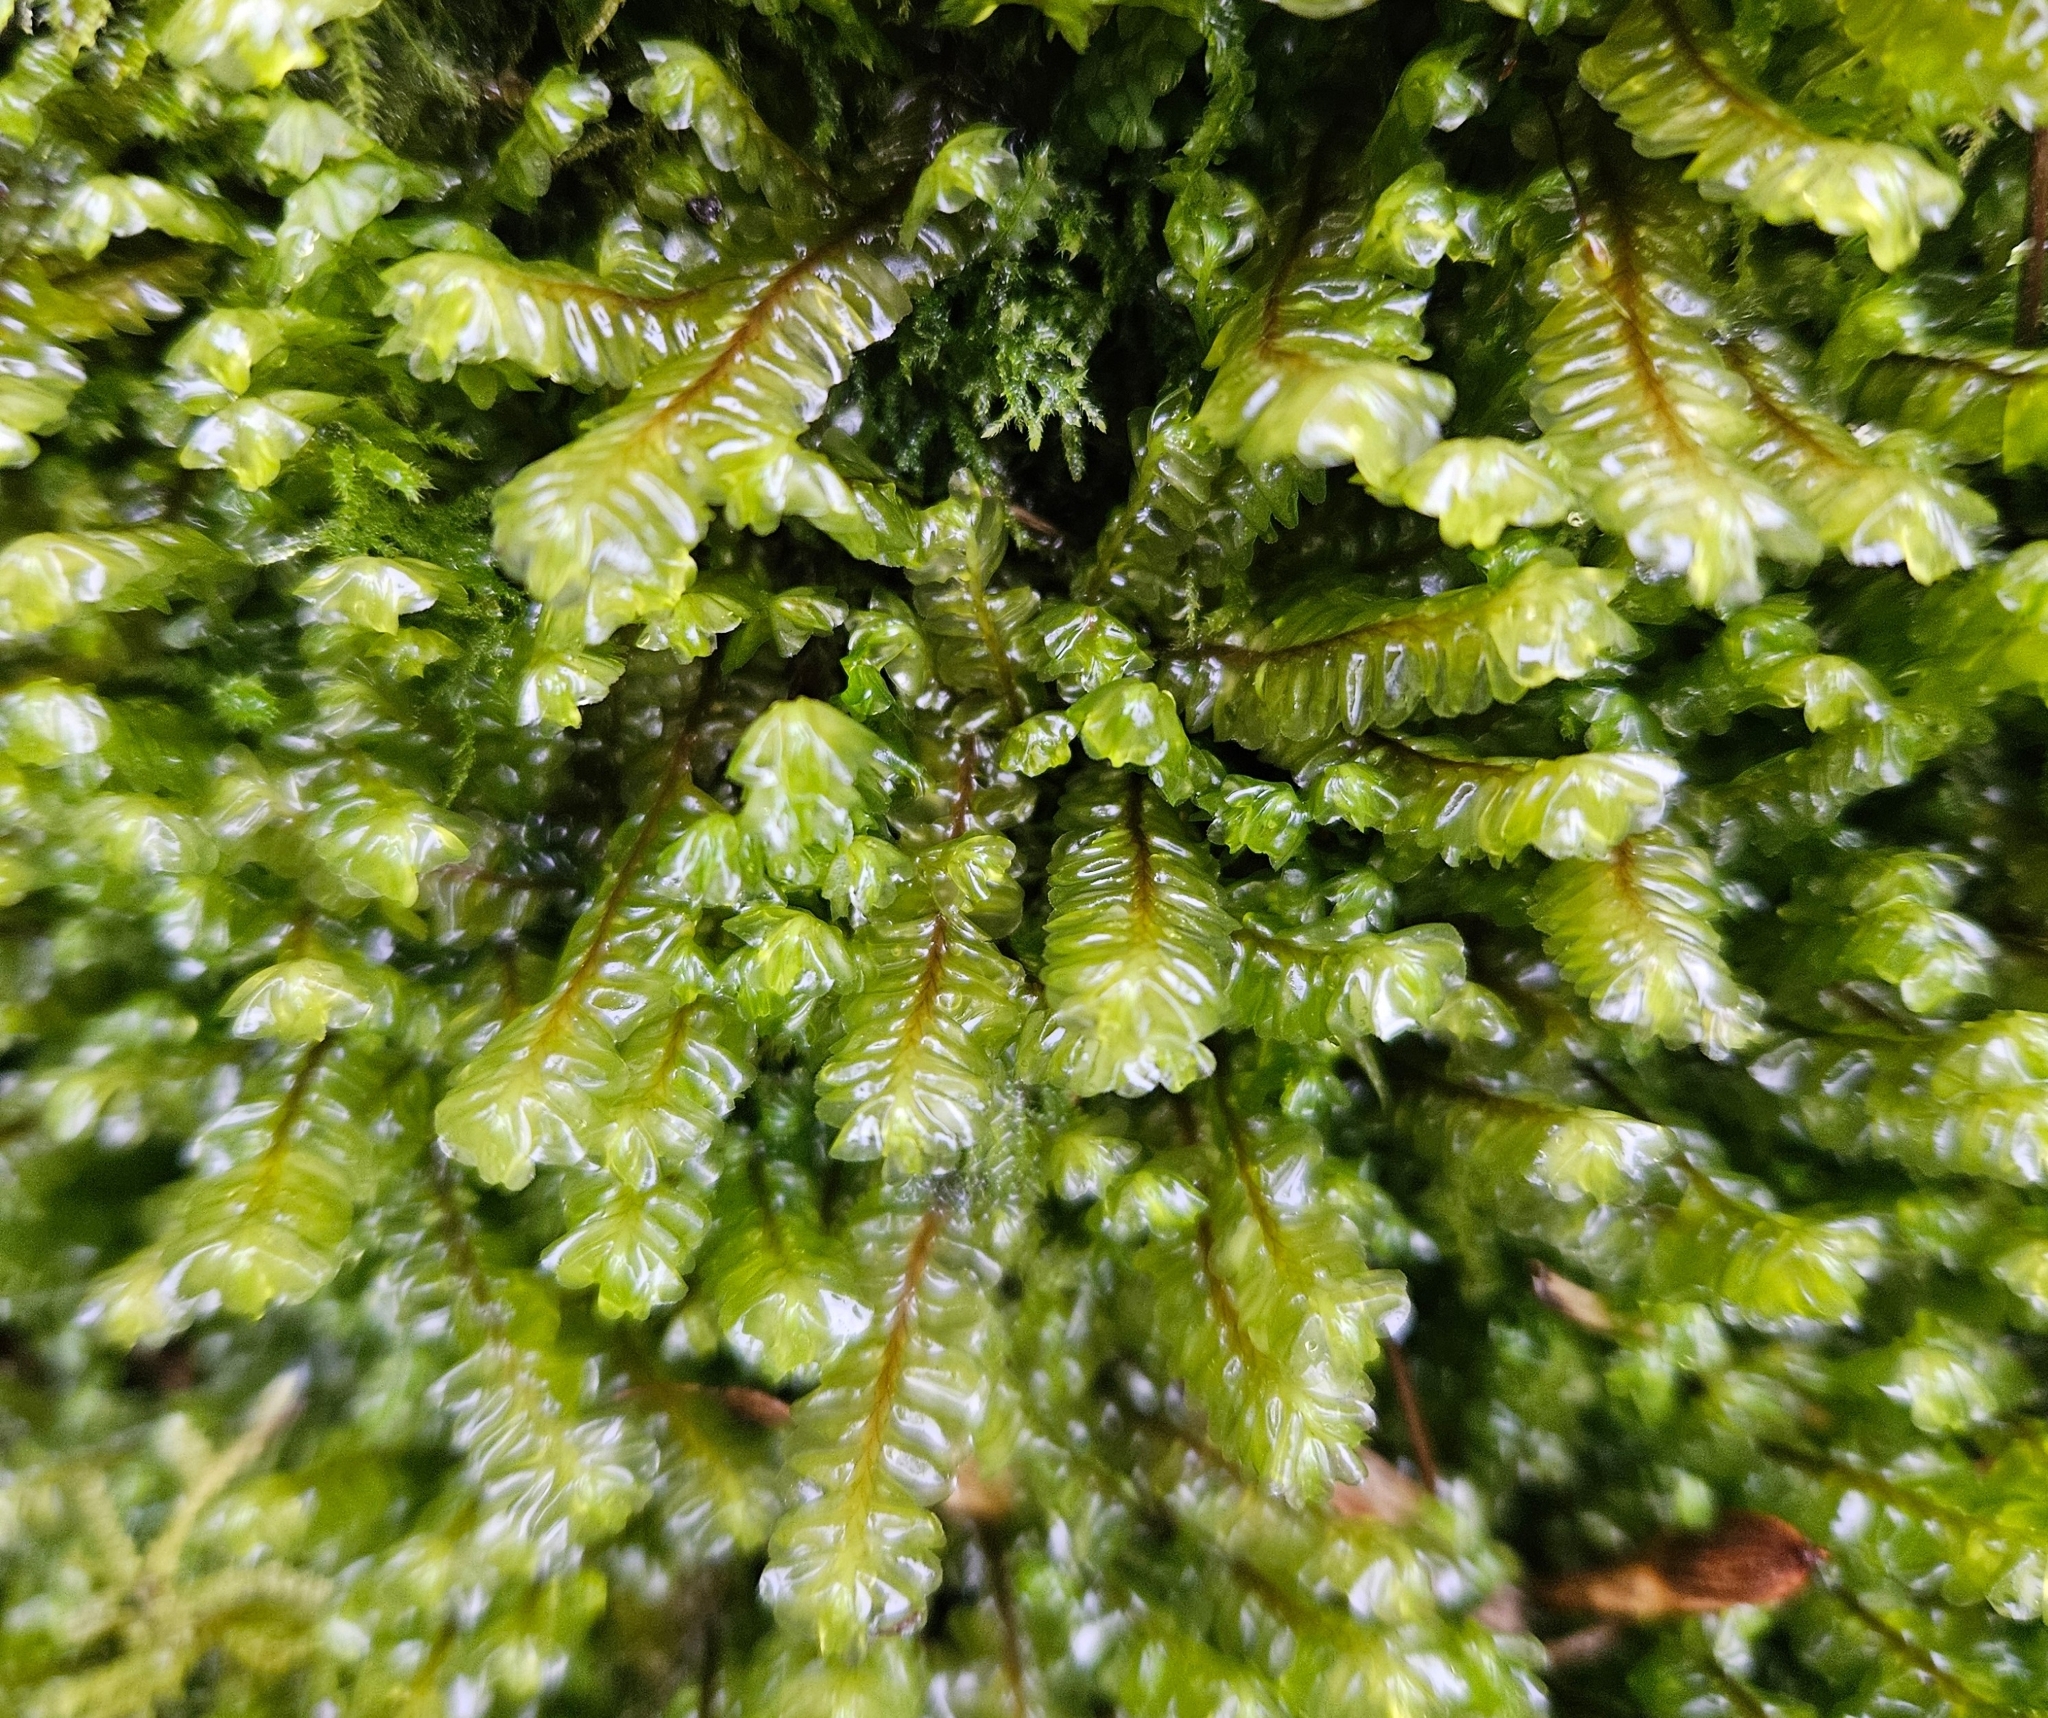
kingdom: Plantae
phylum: Marchantiophyta
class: Jungermanniopsida
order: Jungermanniales
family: Plagiochilaceae
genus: Plagiochila
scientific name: Plagiochila asplenioides
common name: Greater featherwort
